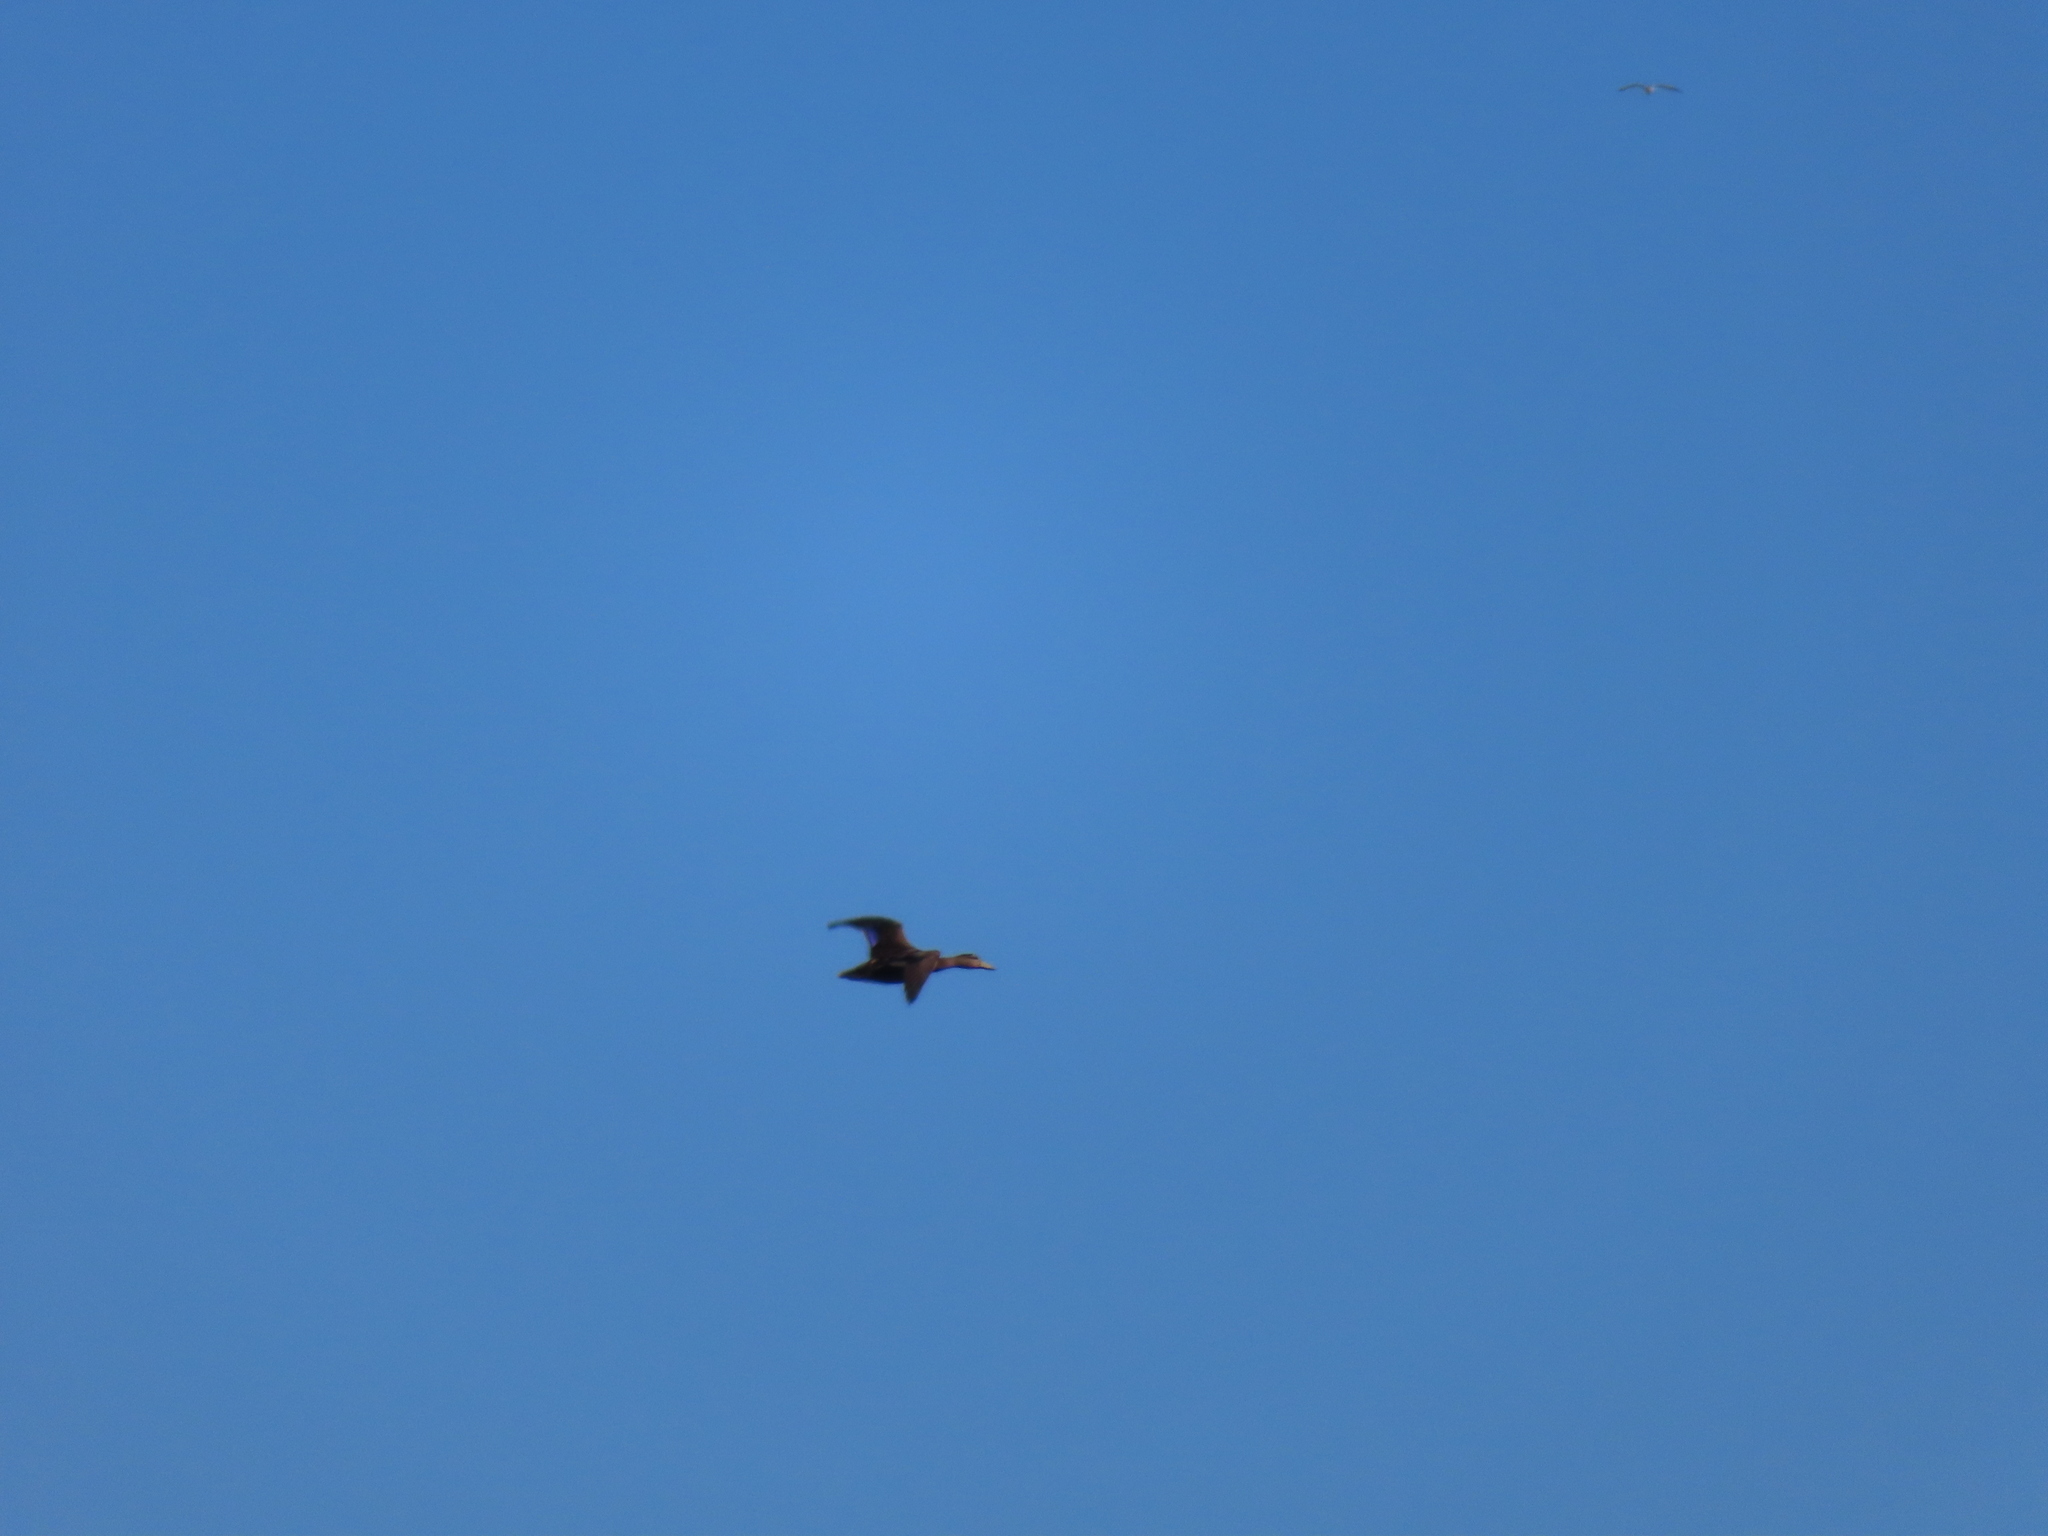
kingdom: Animalia
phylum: Chordata
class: Aves
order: Anseriformes
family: Anatidae
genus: Anas
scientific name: Anas platyrhynchos
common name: Mallard
